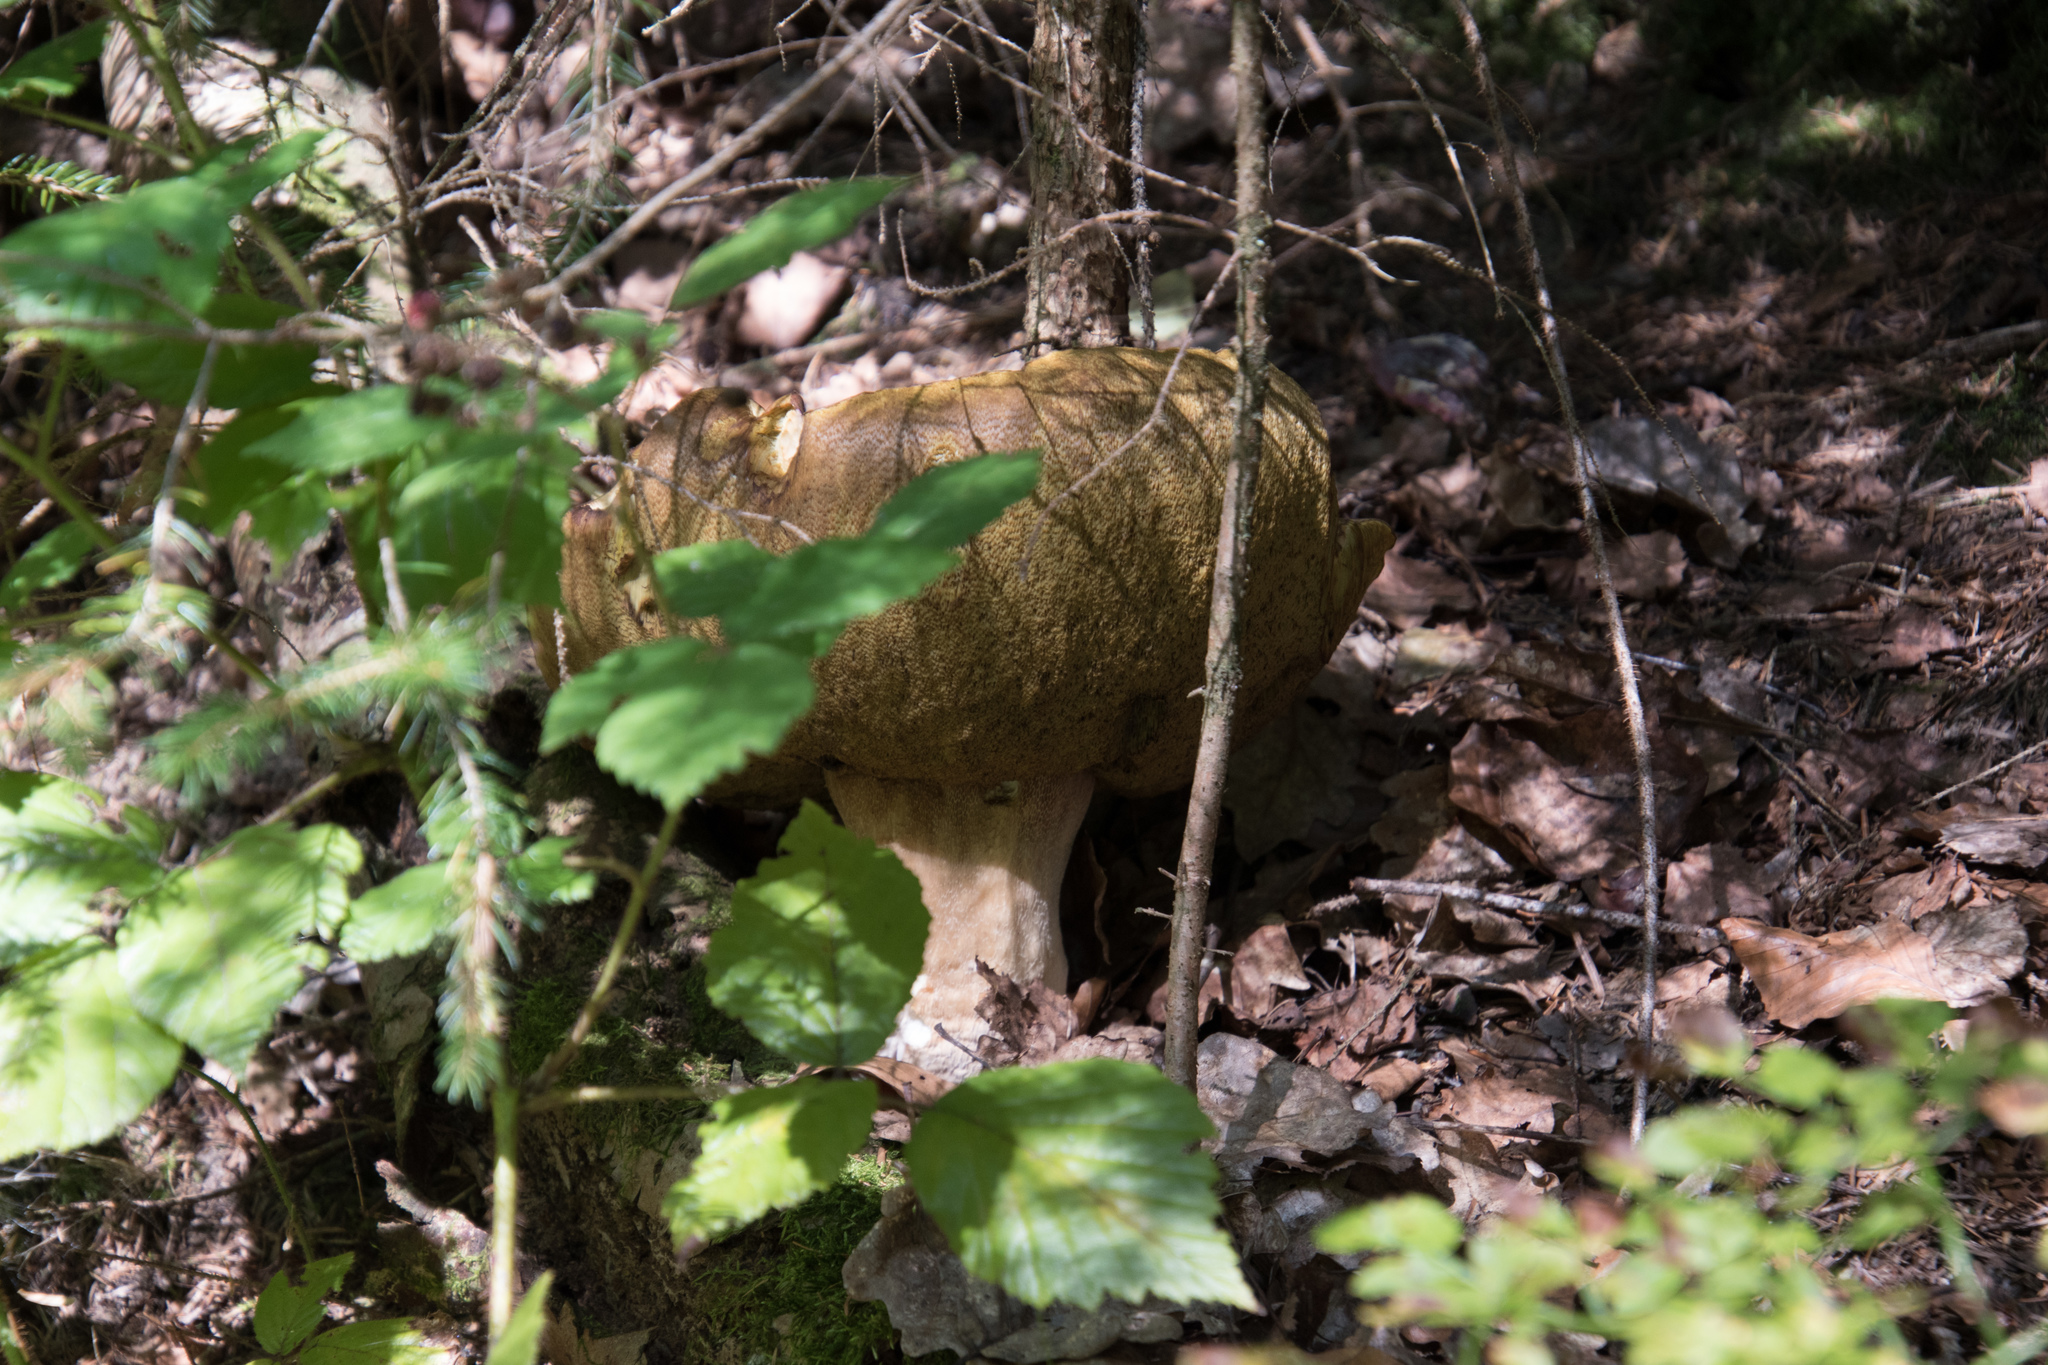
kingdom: Fungi
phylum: Basidiomycota
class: Agaricomycetes
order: Boletales
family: Boletaceae
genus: Boletus
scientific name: Boletus edulis
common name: Cep
